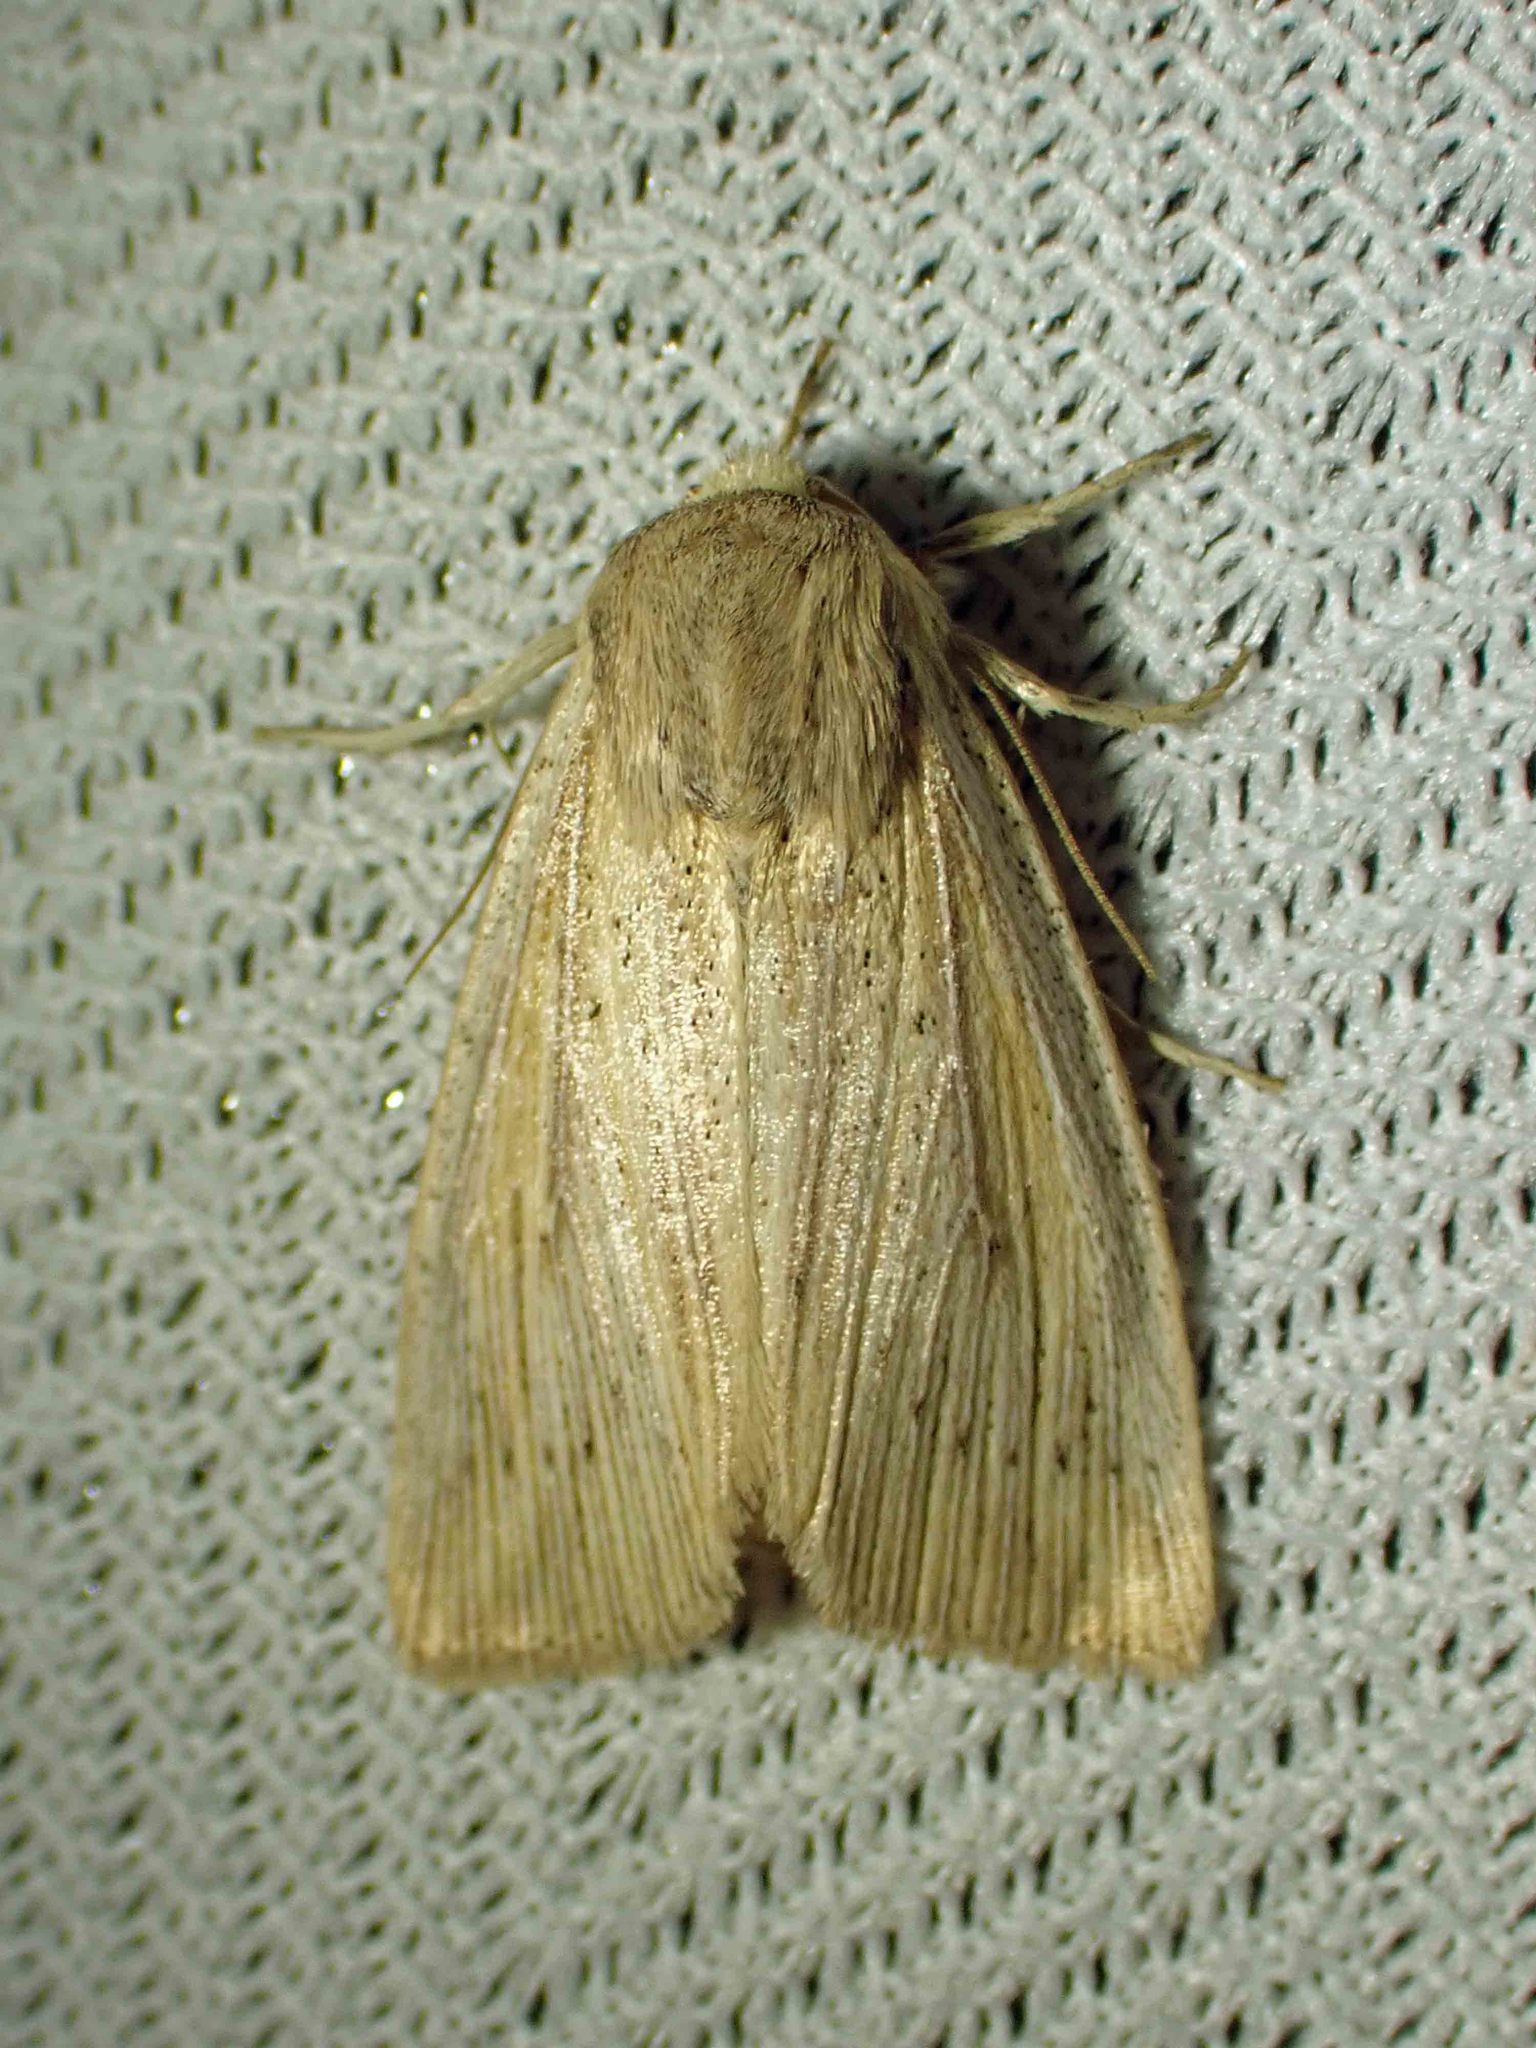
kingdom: Animalia
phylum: Arthropoda
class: Insecta
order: Lepidoptera
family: Noctuidae
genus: Leucania
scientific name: Leucania linita
